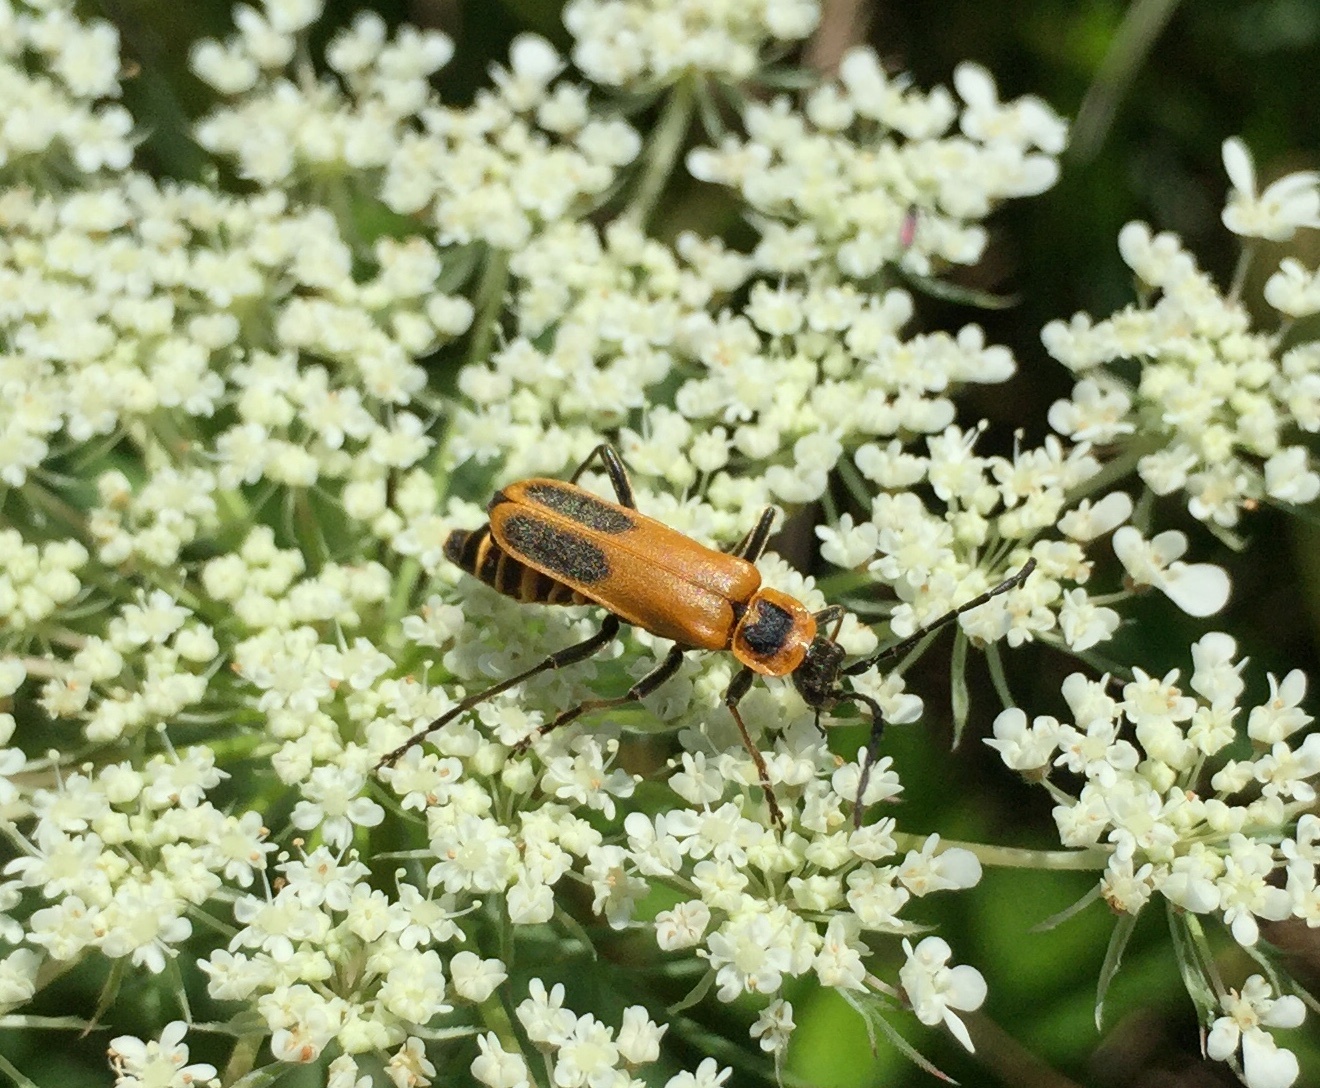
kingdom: Animalia
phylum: Arthropoda
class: Insecta
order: Coleoptera
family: Cantharidae
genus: Chauliognathus
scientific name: Chauliognathus pensylvanicus
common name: Goldenrod soldier beetle
